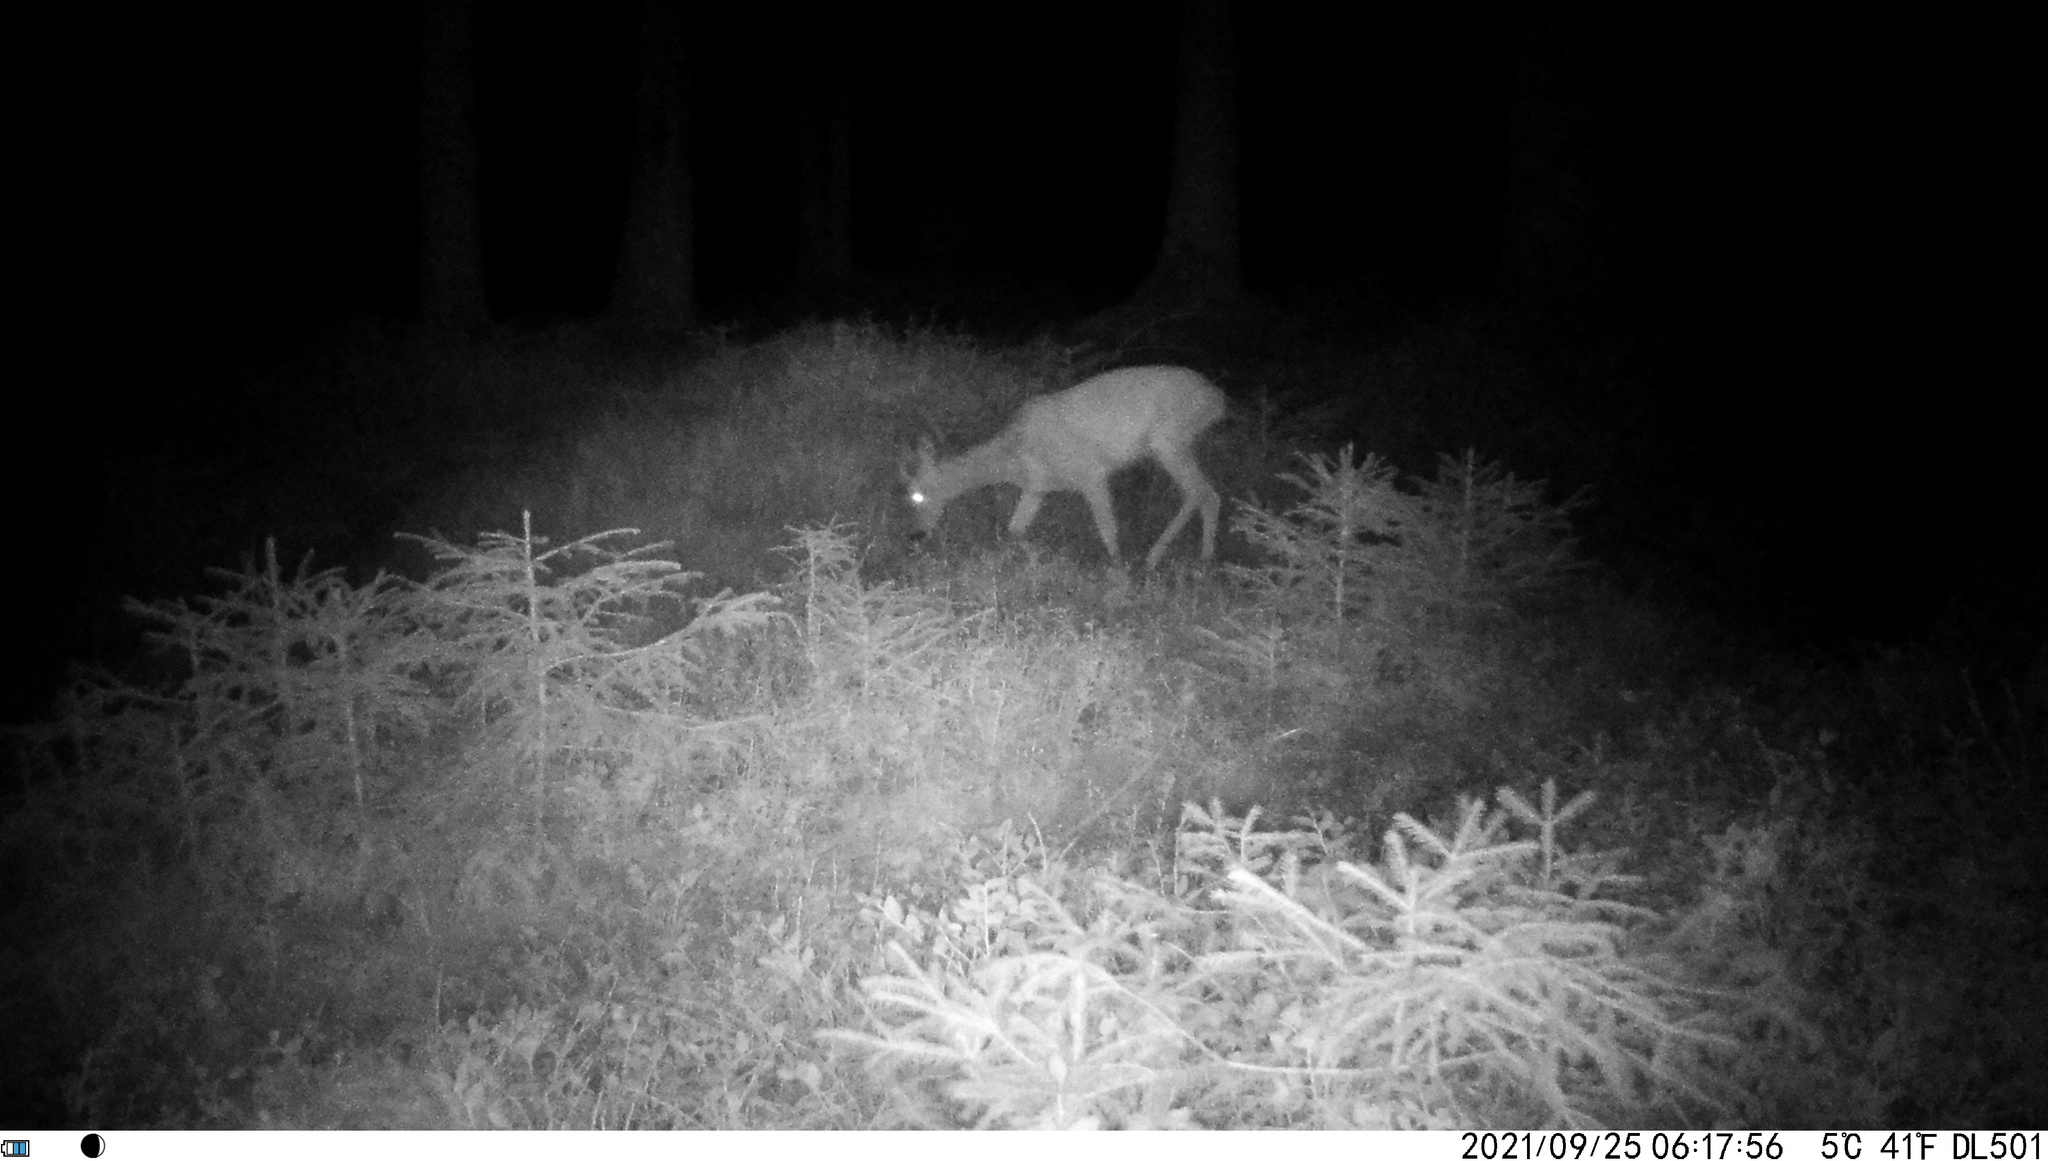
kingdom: Animalia
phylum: Chordata
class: Mammalia
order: Artiodactyla
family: Cervidae
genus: Capreolus
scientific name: Capreolus capreolus
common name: Western roe deer
